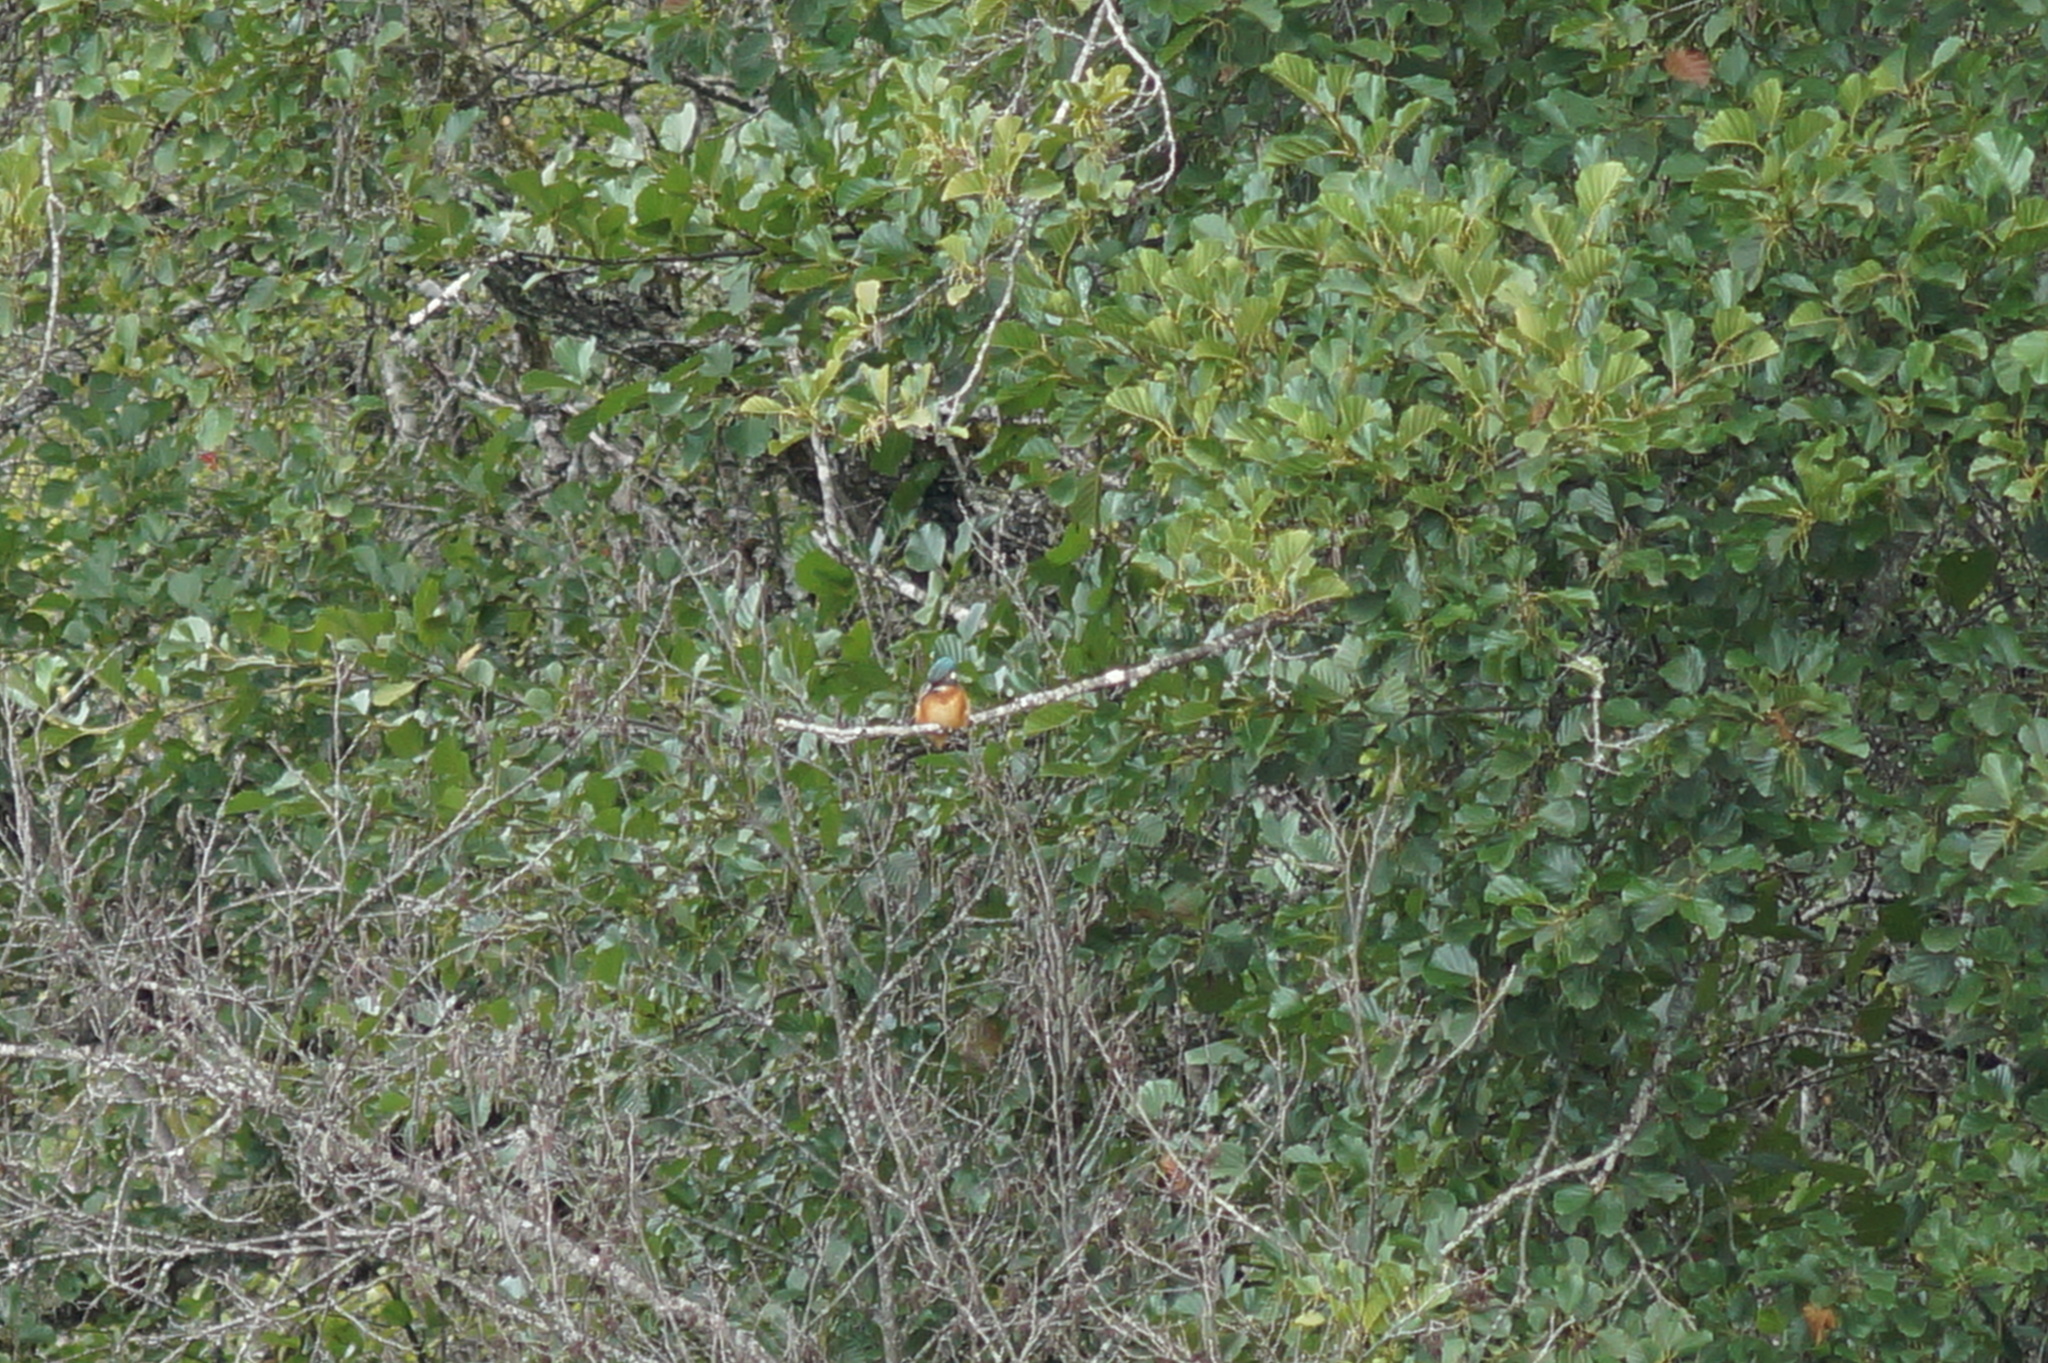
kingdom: Animalia
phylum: Chordata
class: Aves
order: Coraciiformes
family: Alcedinidae
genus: Alcedo
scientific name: Alcedo atthis
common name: Common kingfisher
